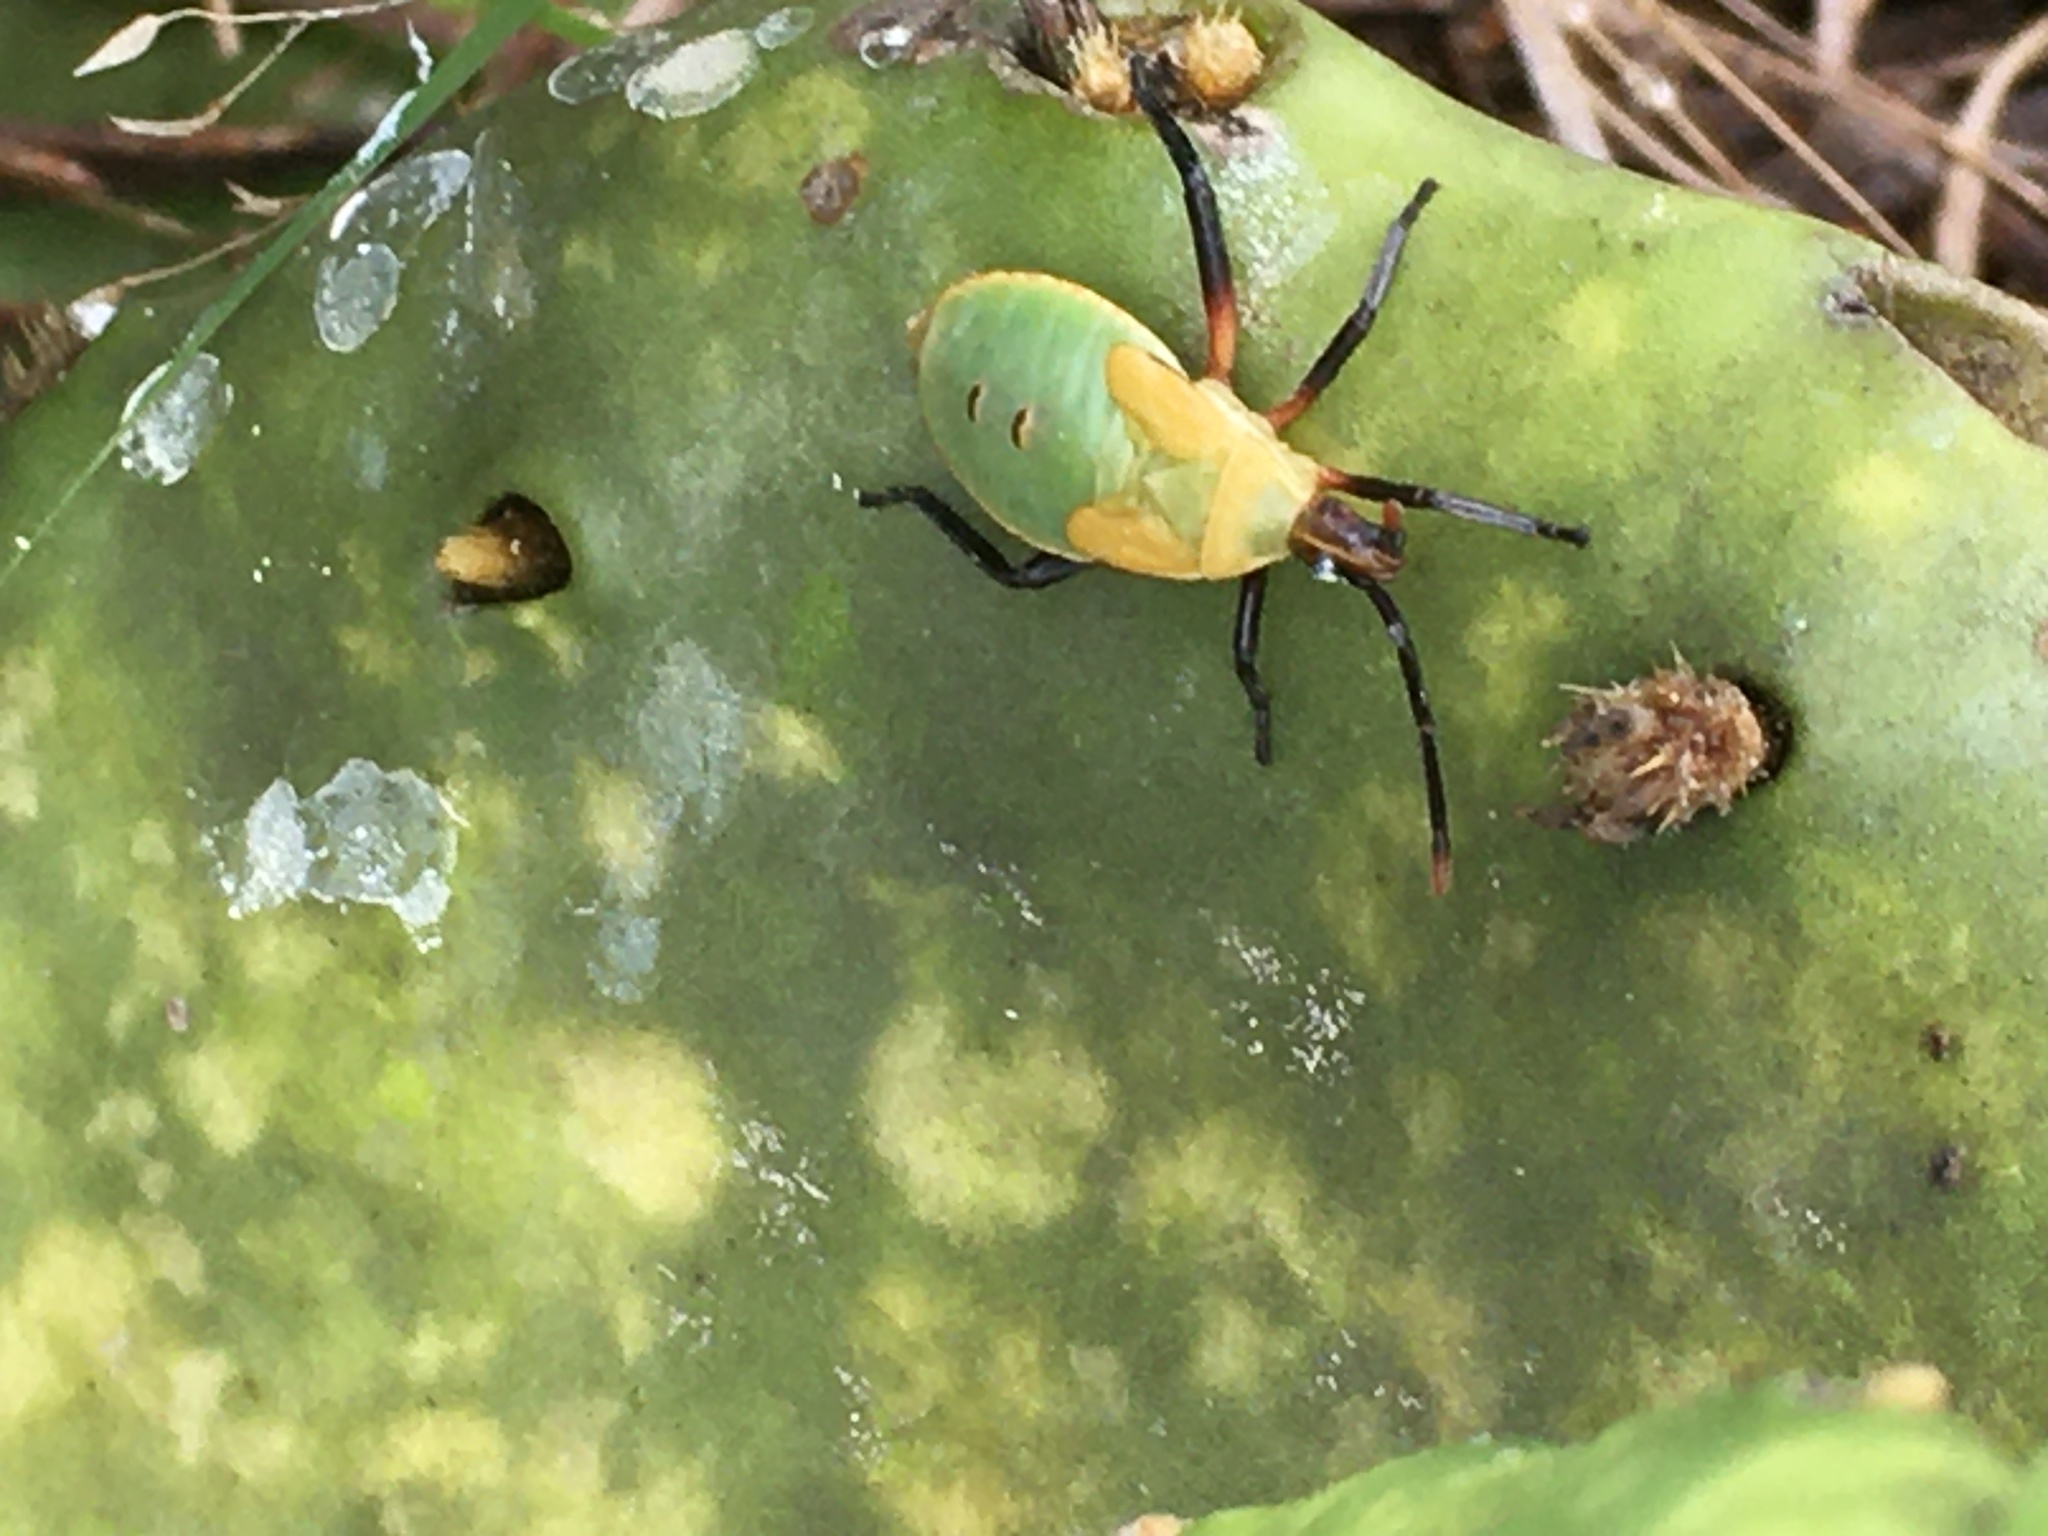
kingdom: Animalia
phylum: Arthropoda
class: Insecta
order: Hemiptera
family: Coreidae
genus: Chelinidea
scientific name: Chelinidea vittiger
